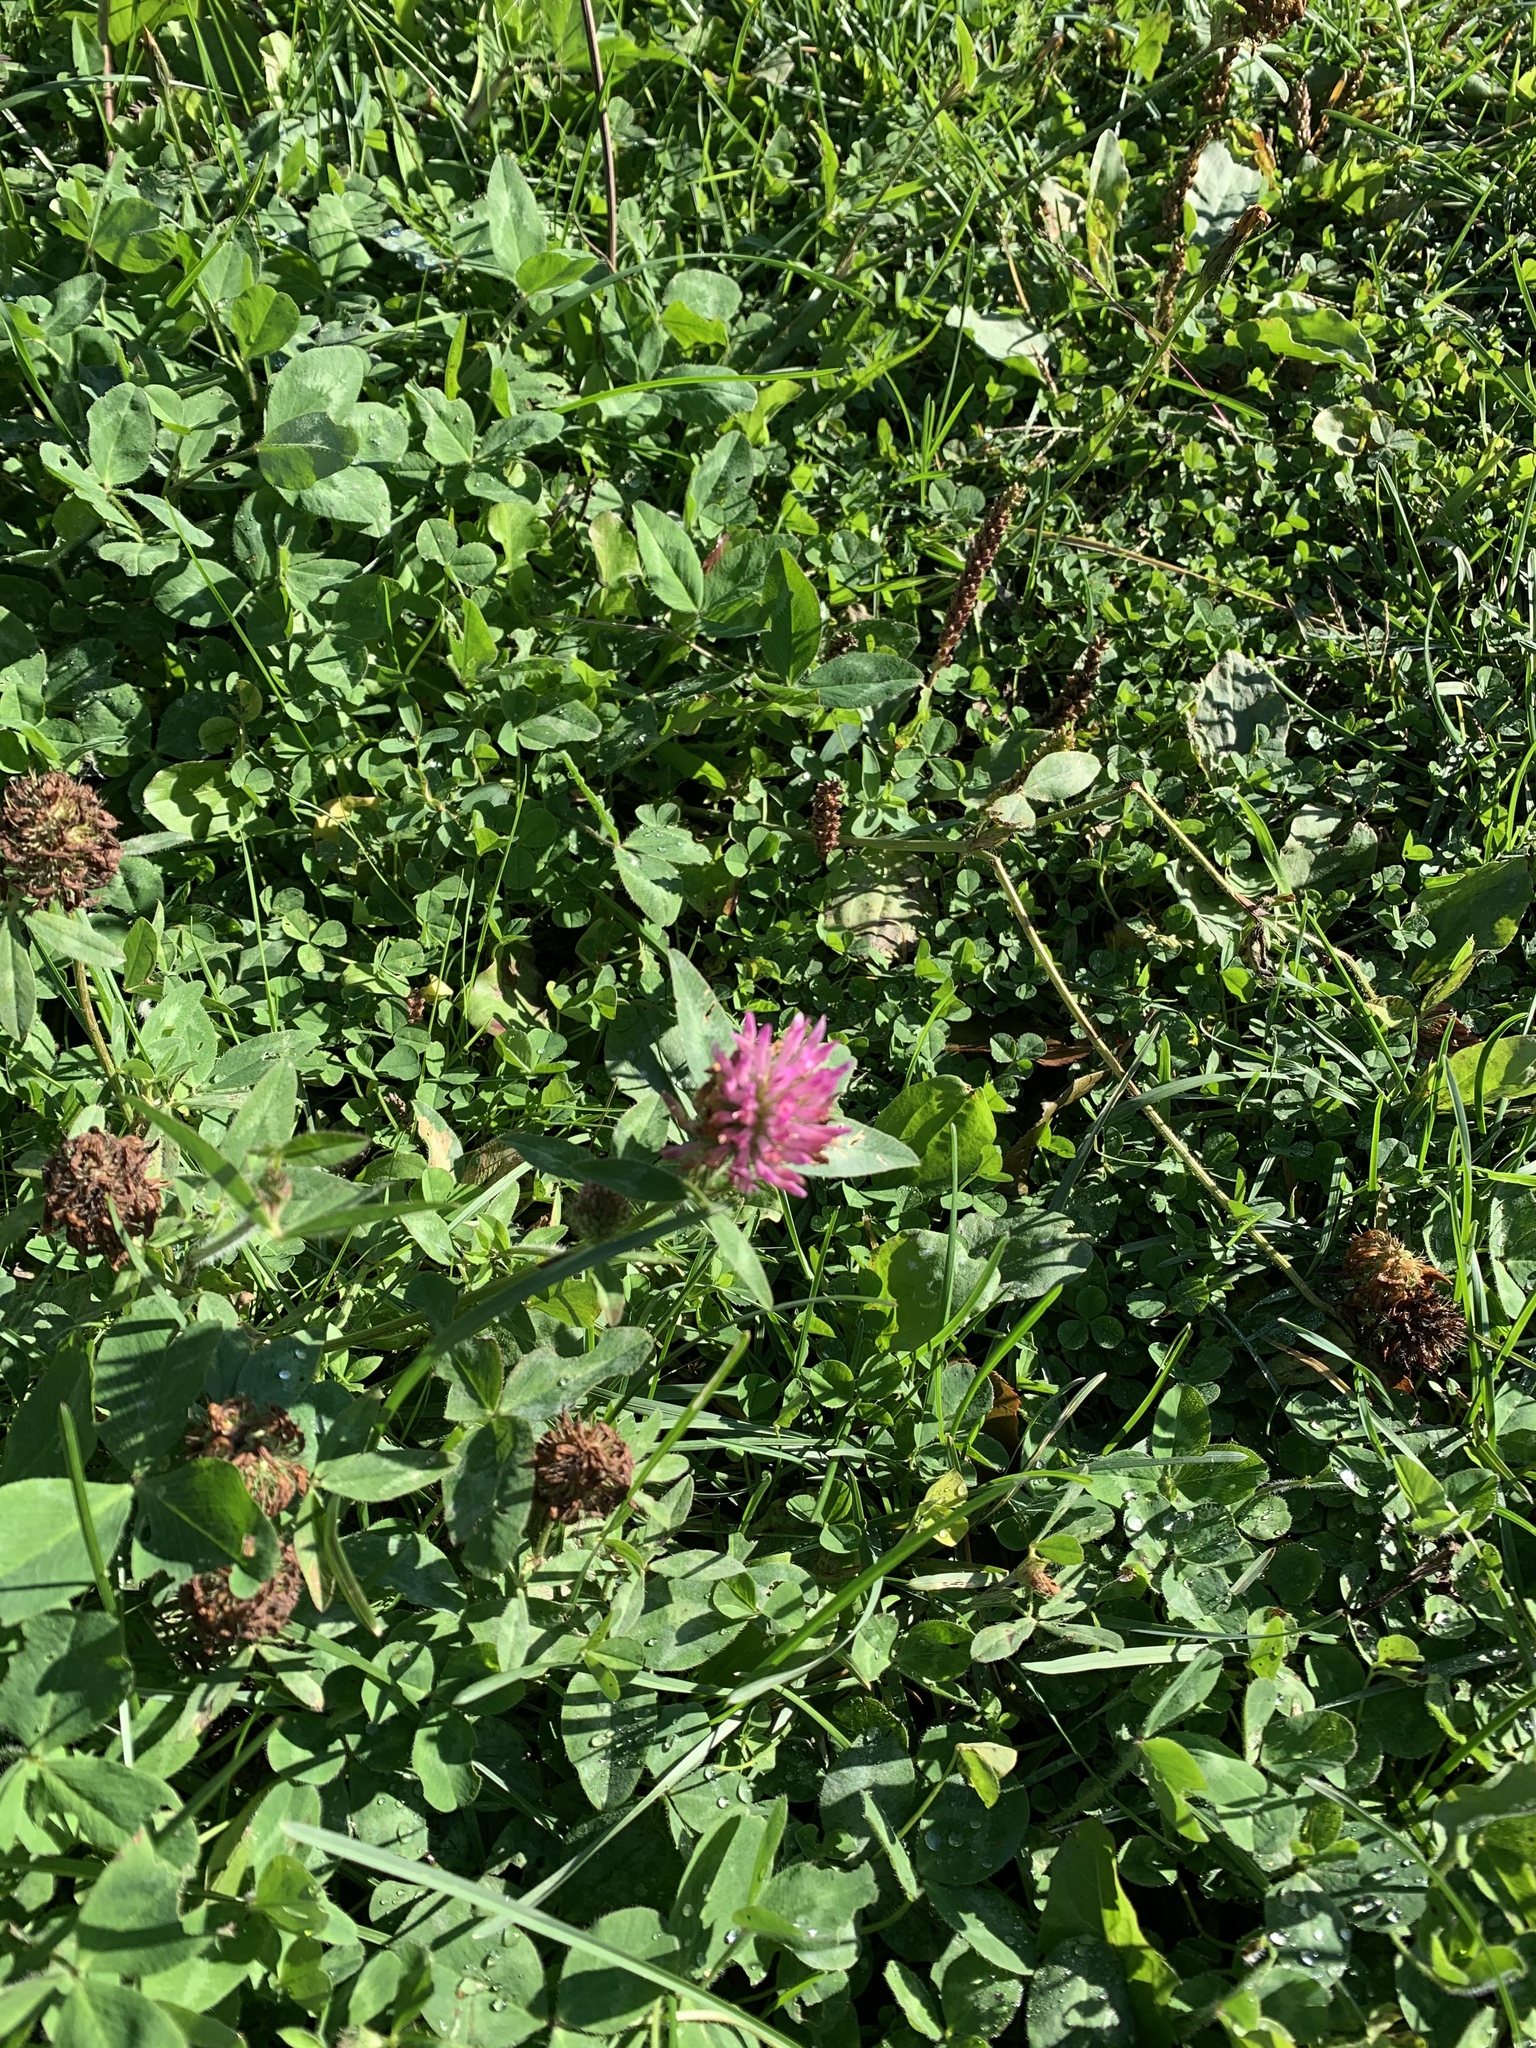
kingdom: Plantae
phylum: Tracheophyta
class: Magnoliopsida
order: Fabales
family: Fabaceae
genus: Trifolium
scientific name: Trifolium pratense
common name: Red clover
